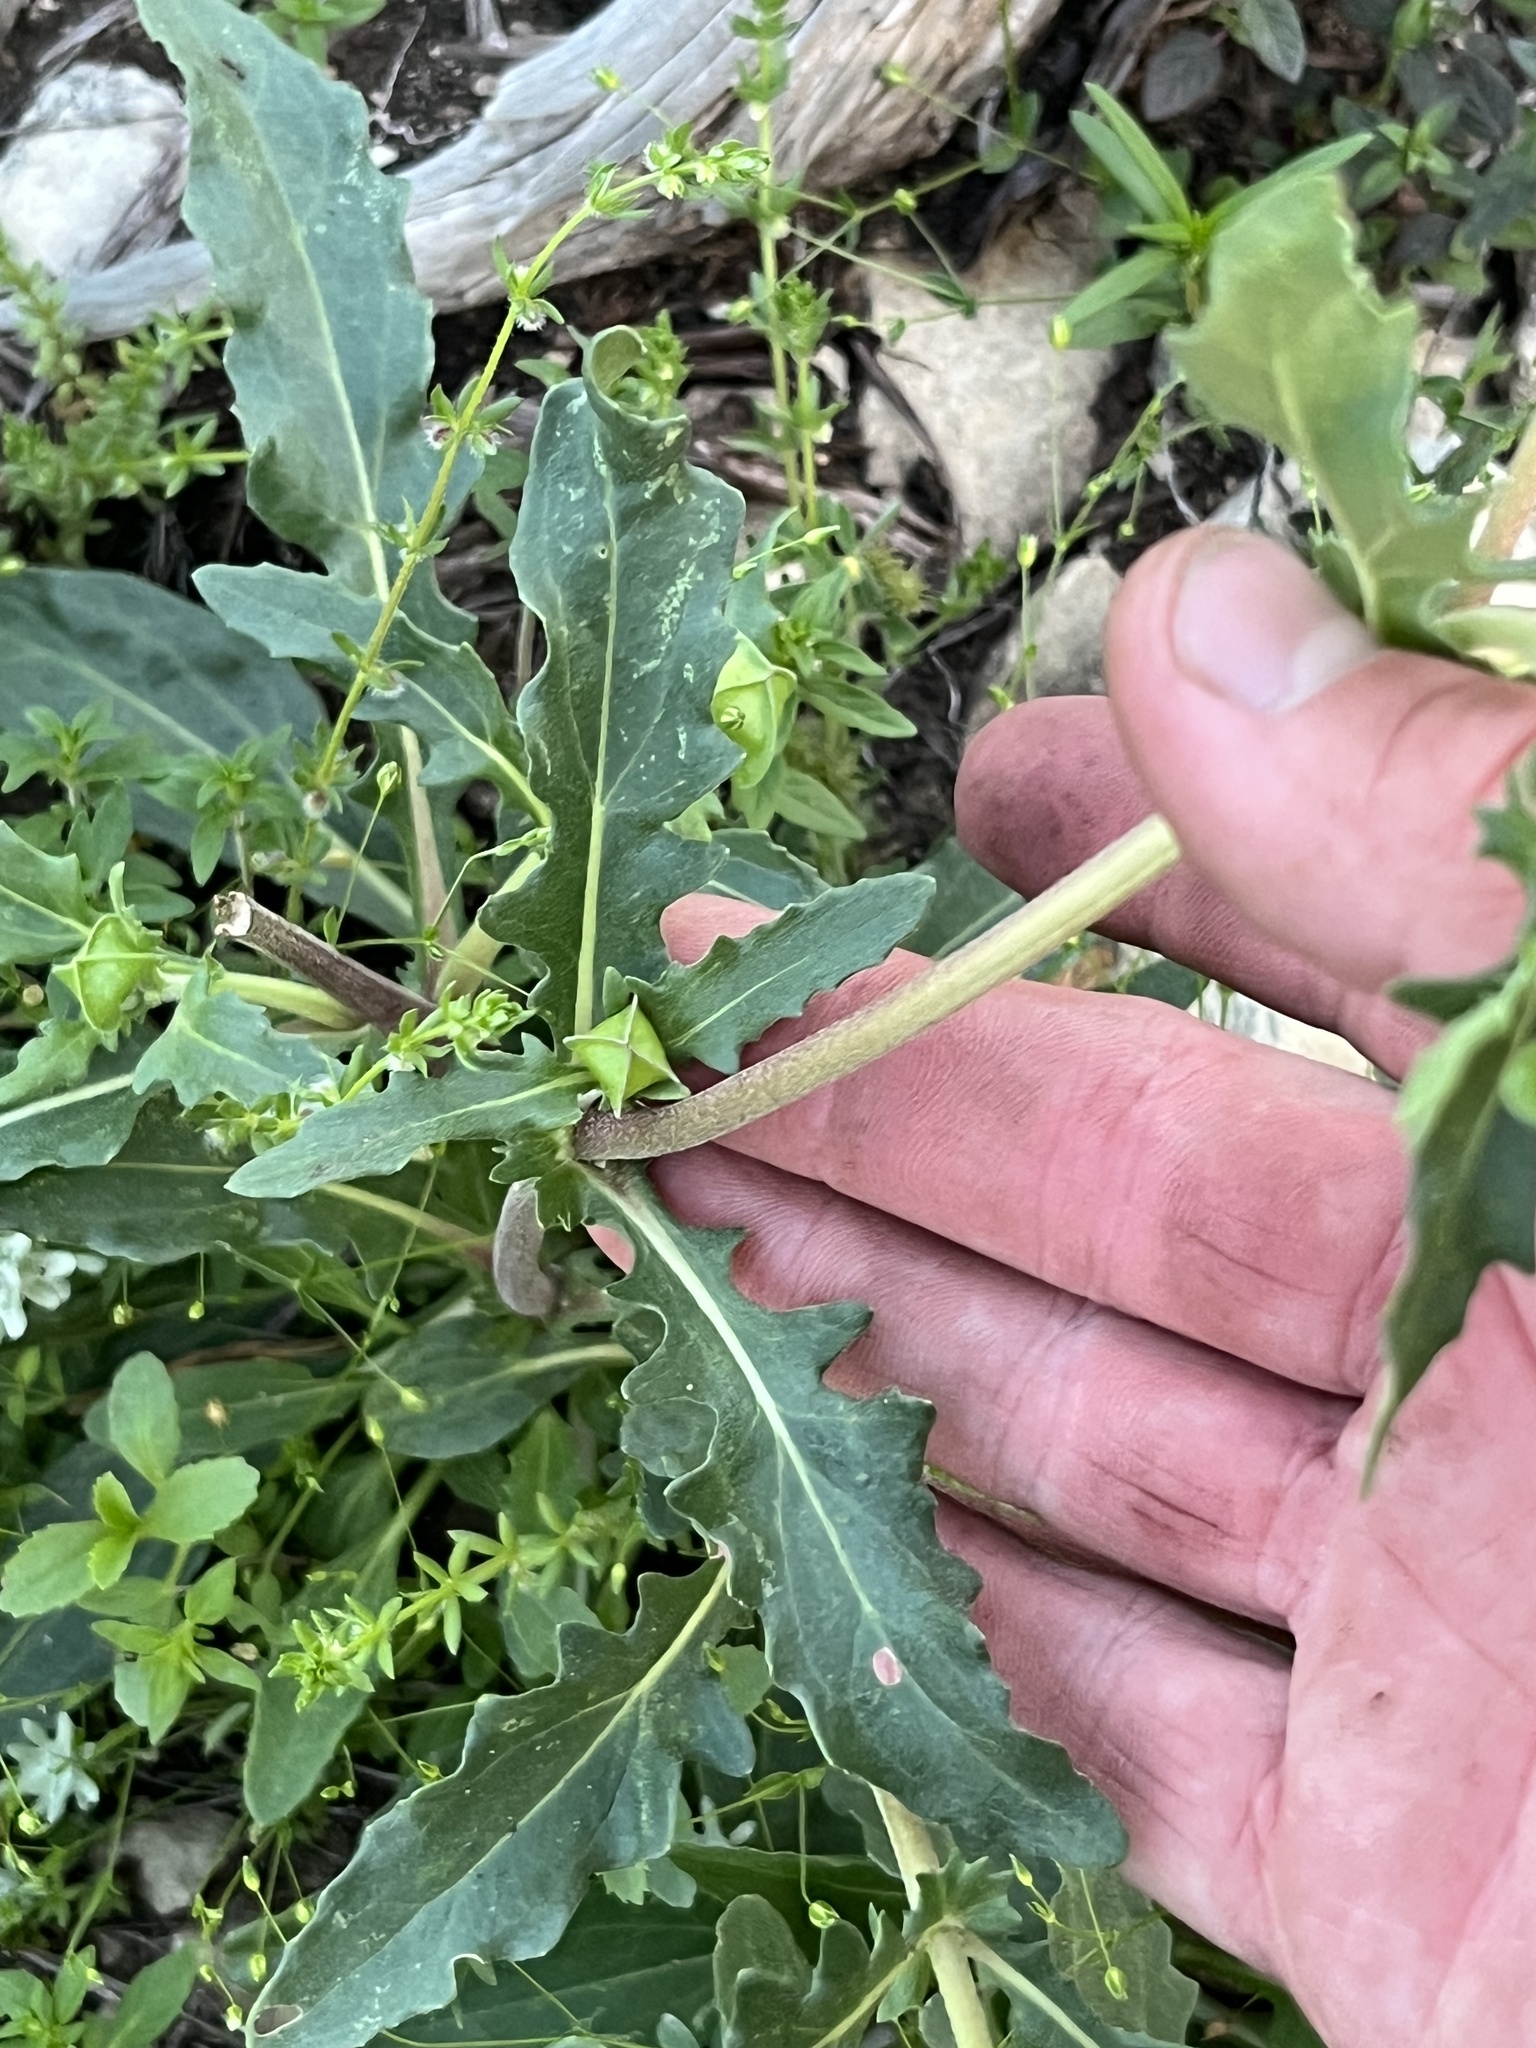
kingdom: Plantae
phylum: Tracheophyta
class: Magnoliopsida
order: Asterales
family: Asteraceae
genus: Tetragonotheca
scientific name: Tetragonotheca texana
